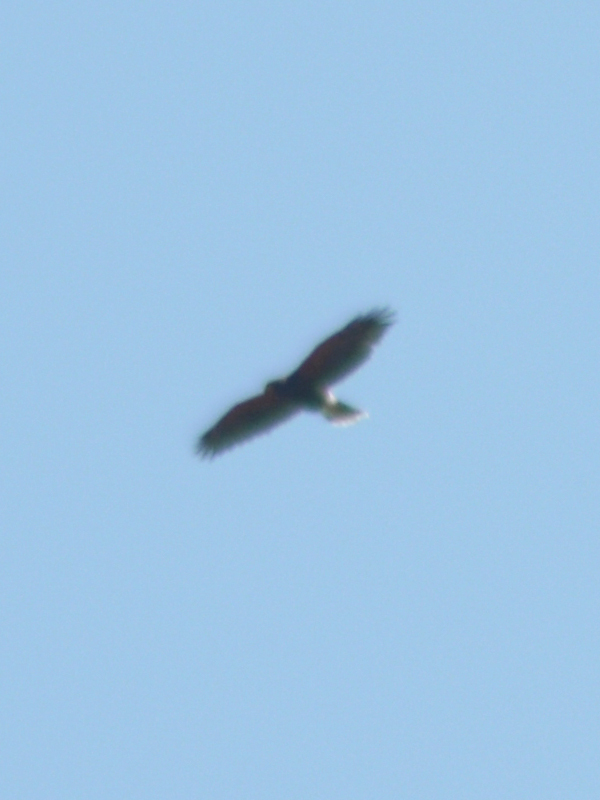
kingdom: Animalia
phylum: Chordata
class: Aves
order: Accipitriformes
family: Accipitridae
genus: Parabuteo
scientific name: Parabuteo unicinctus
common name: Harris's hawk
